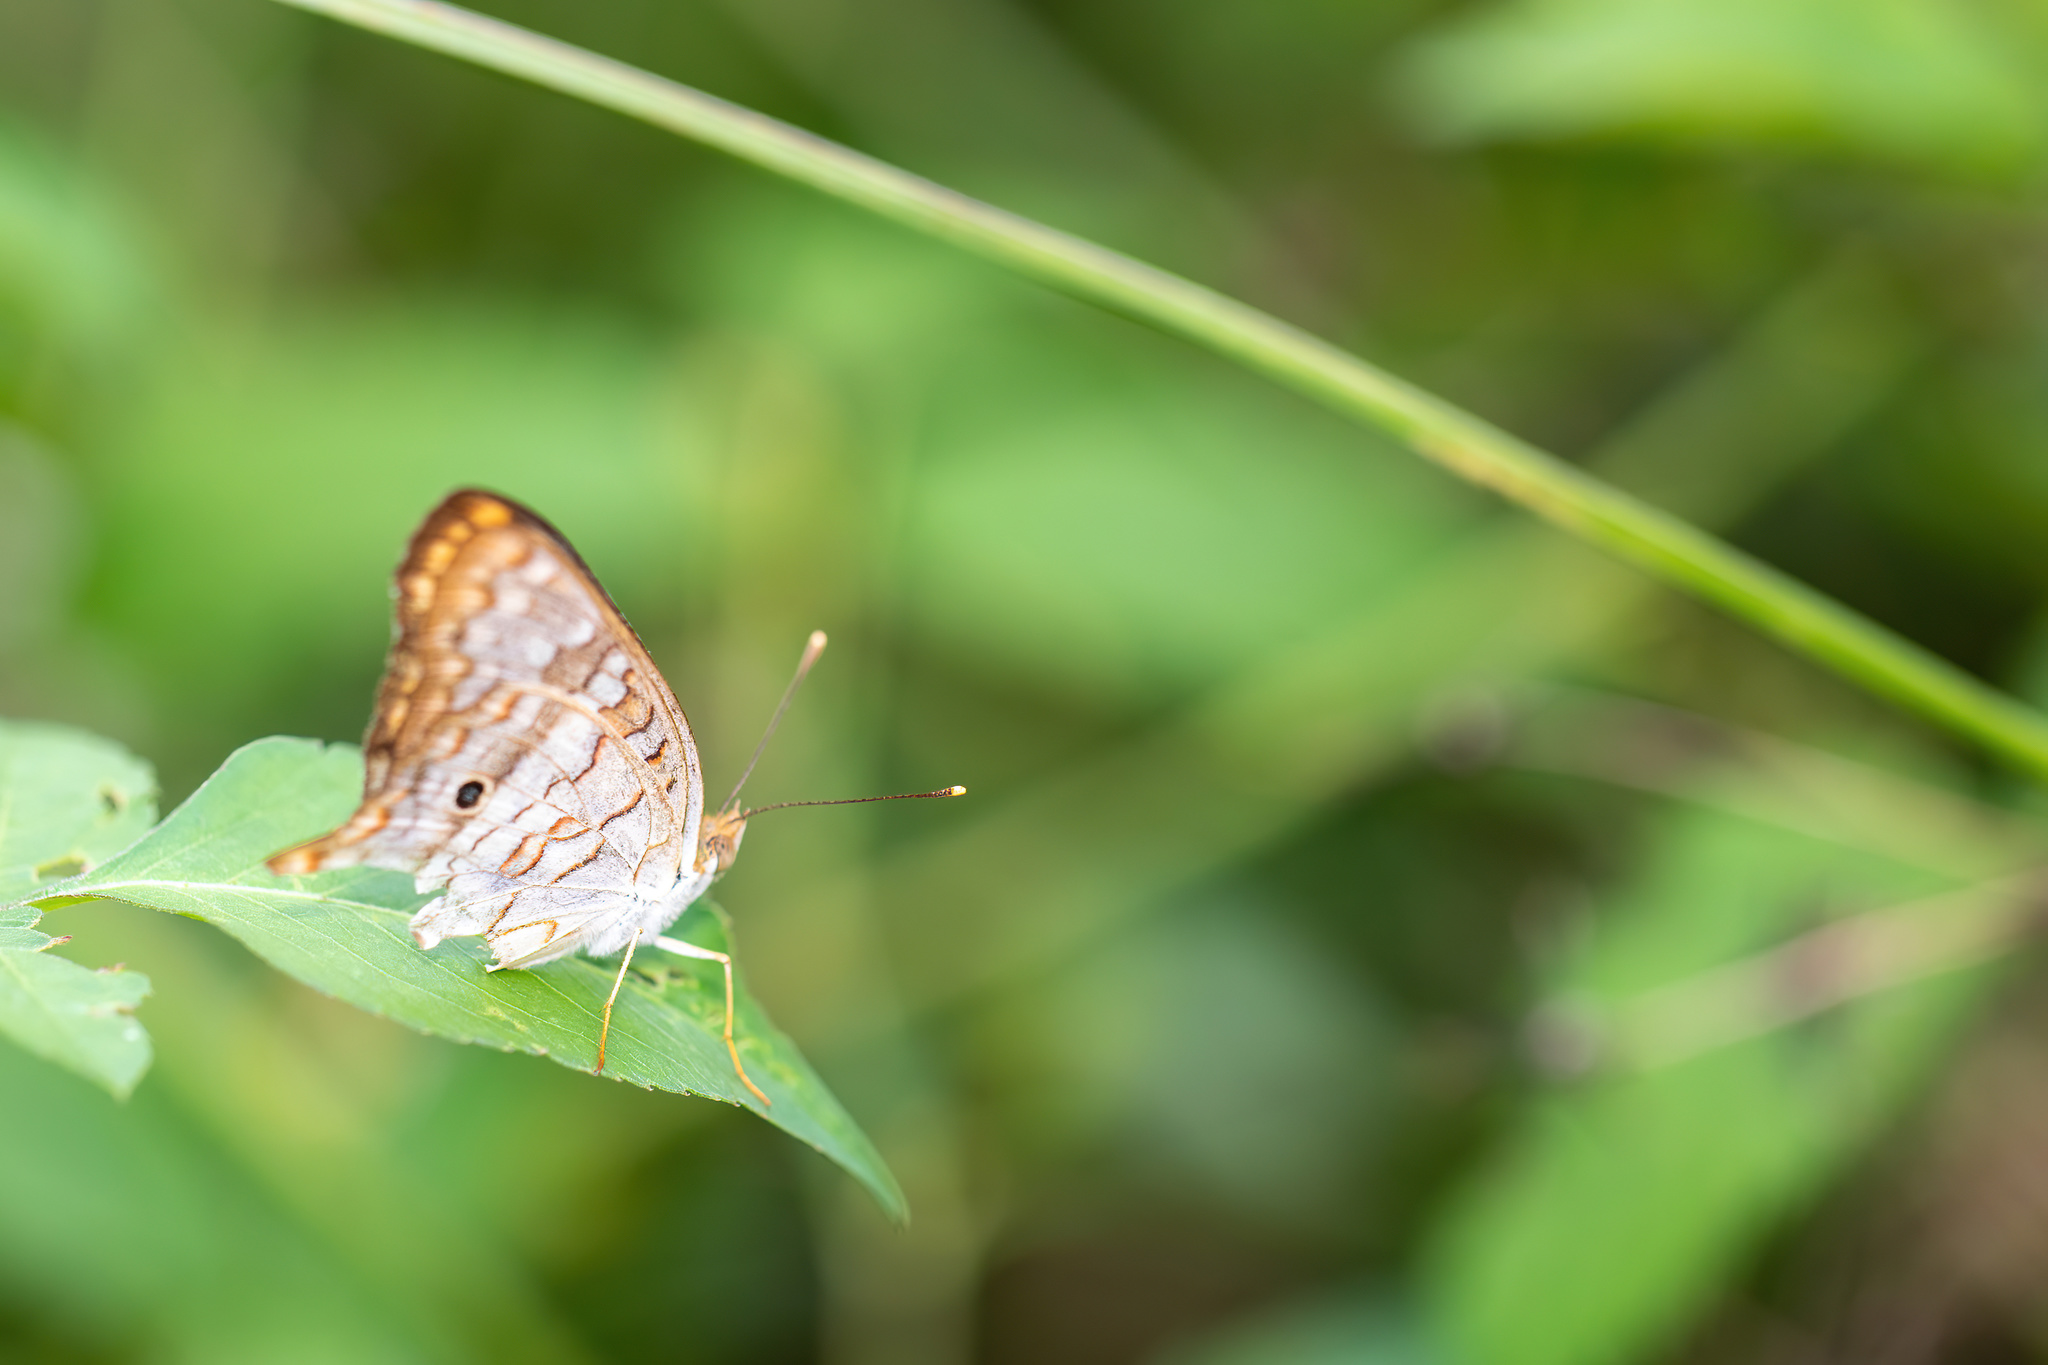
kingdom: Animalia
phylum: Arthropoda
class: Insecta
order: Lepidoptera
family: Nymphalidae
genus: Anartia
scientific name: Anartia jatrophae
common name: White peacock
